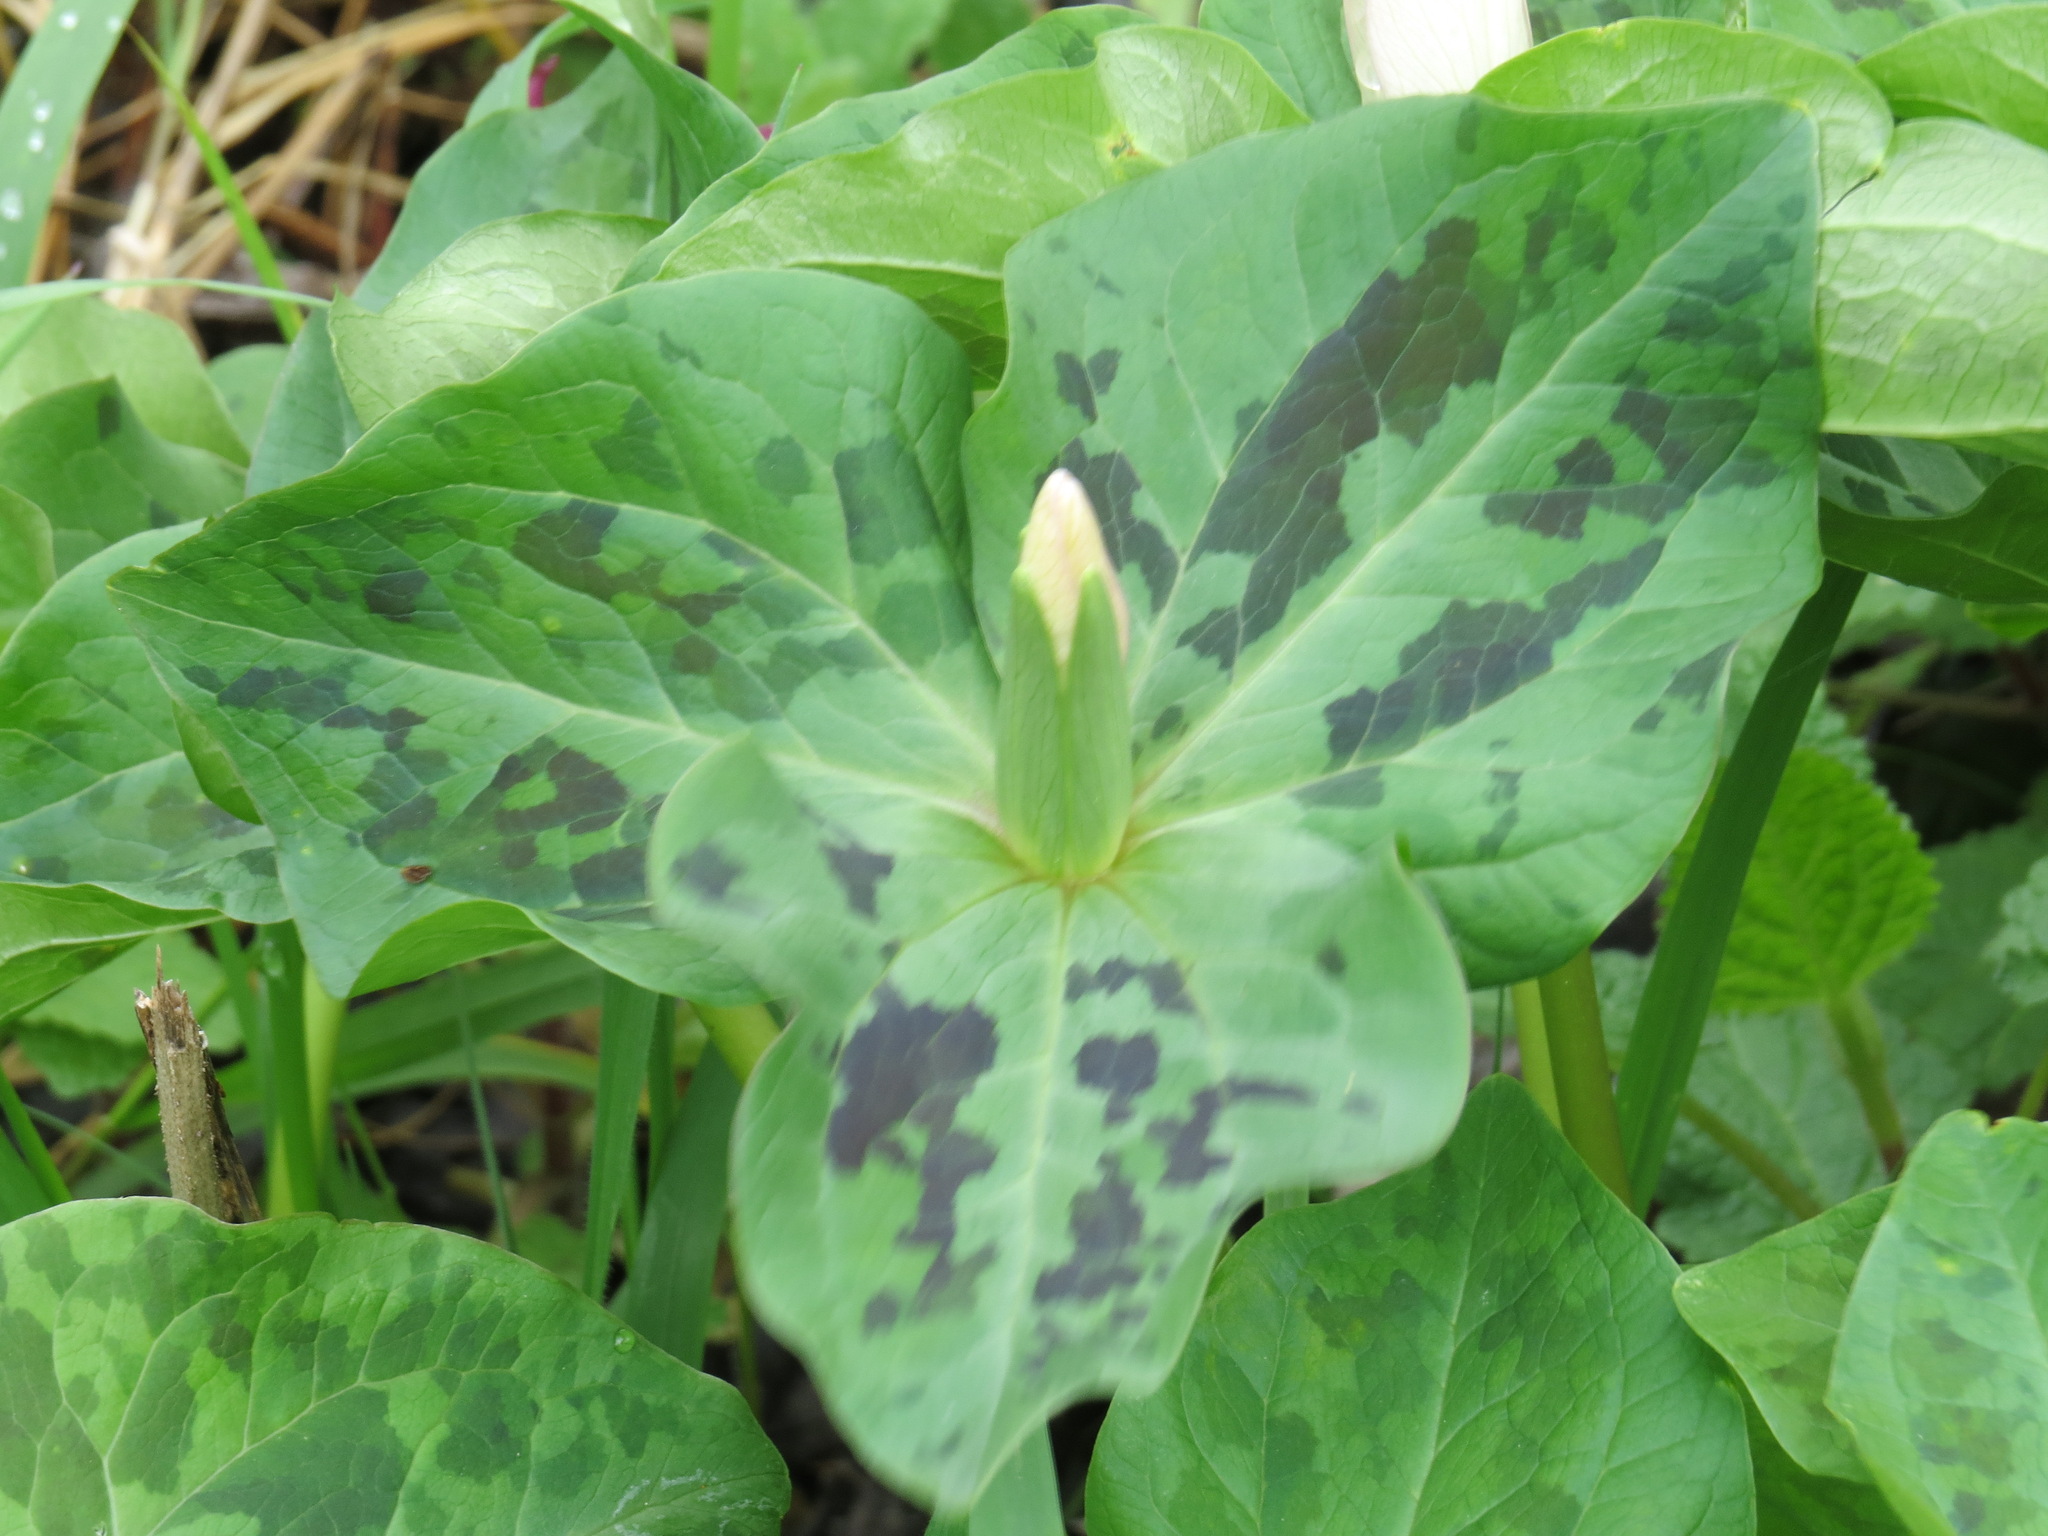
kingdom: Plantae
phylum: Tracheophyta
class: Liliopsida
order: Liliales
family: Melanthiaceae
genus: Trillium
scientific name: Trillium chloropetalum
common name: Giant trillium
